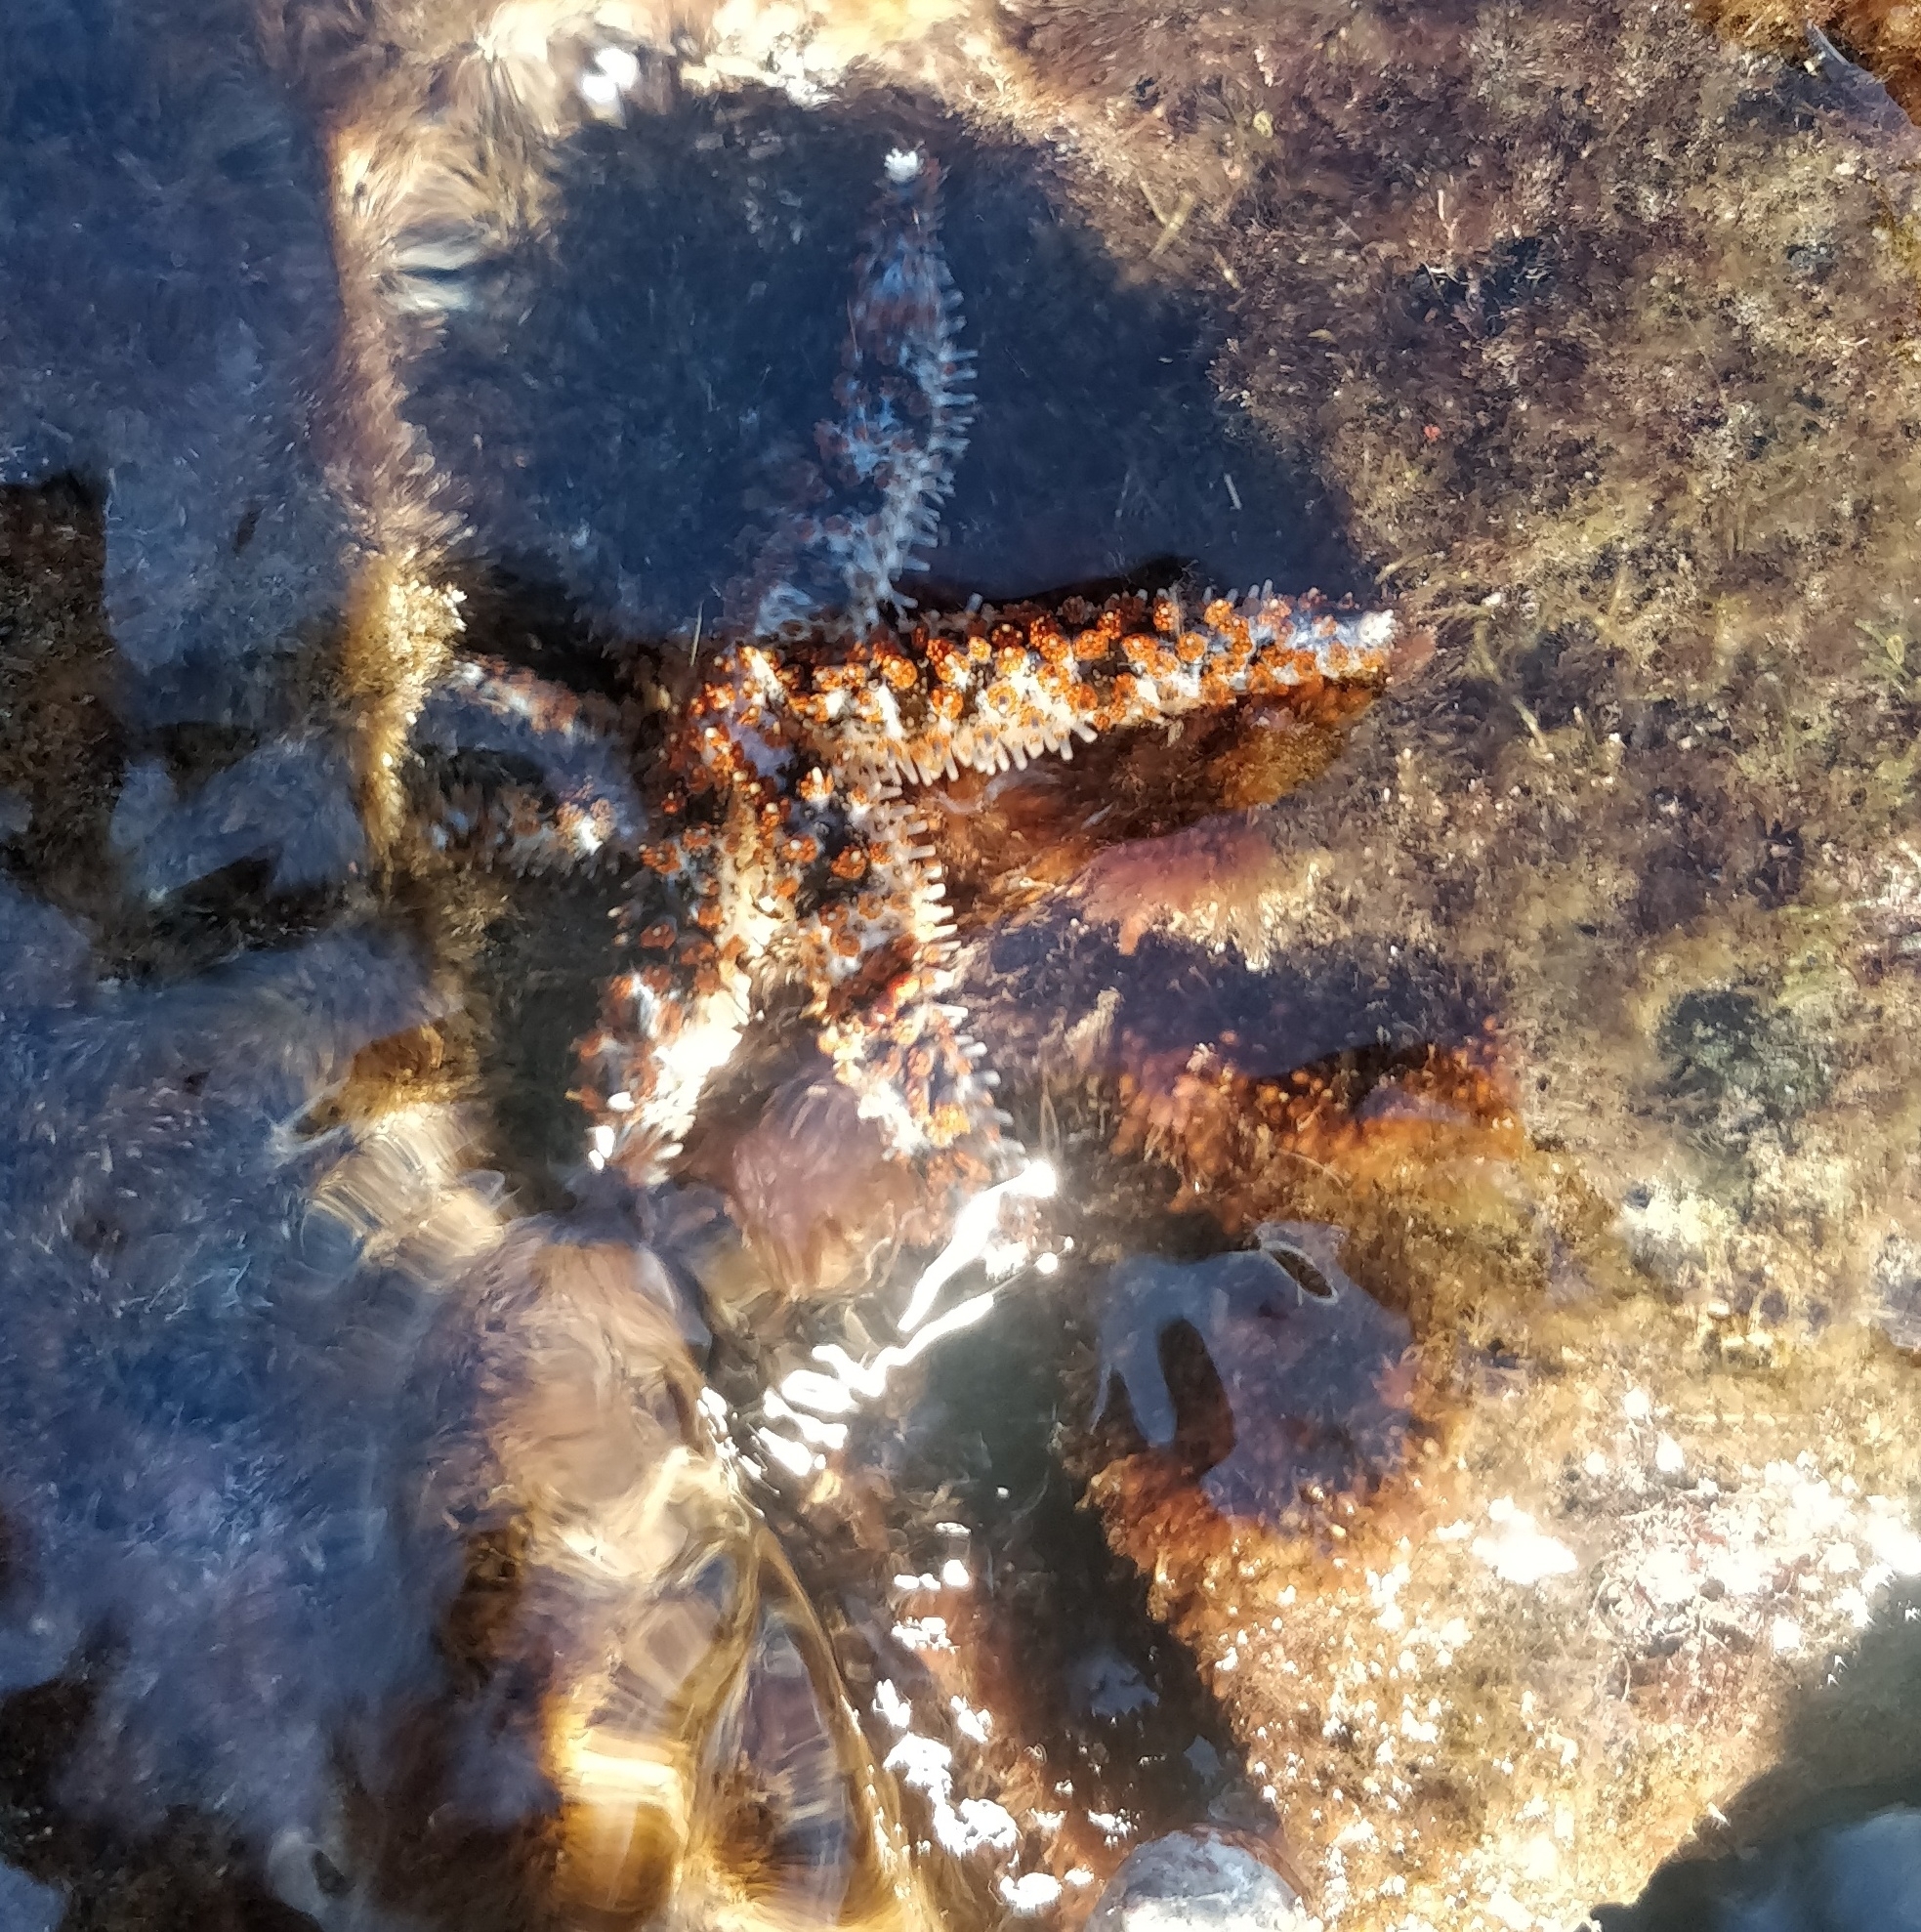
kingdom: Animalia
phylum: Echinodermata
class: Asteroidea
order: Forcipulatida
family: Asteriidae
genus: Coscinasterias
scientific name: Coscinasterias tenuispina
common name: Blue spiny starfish
